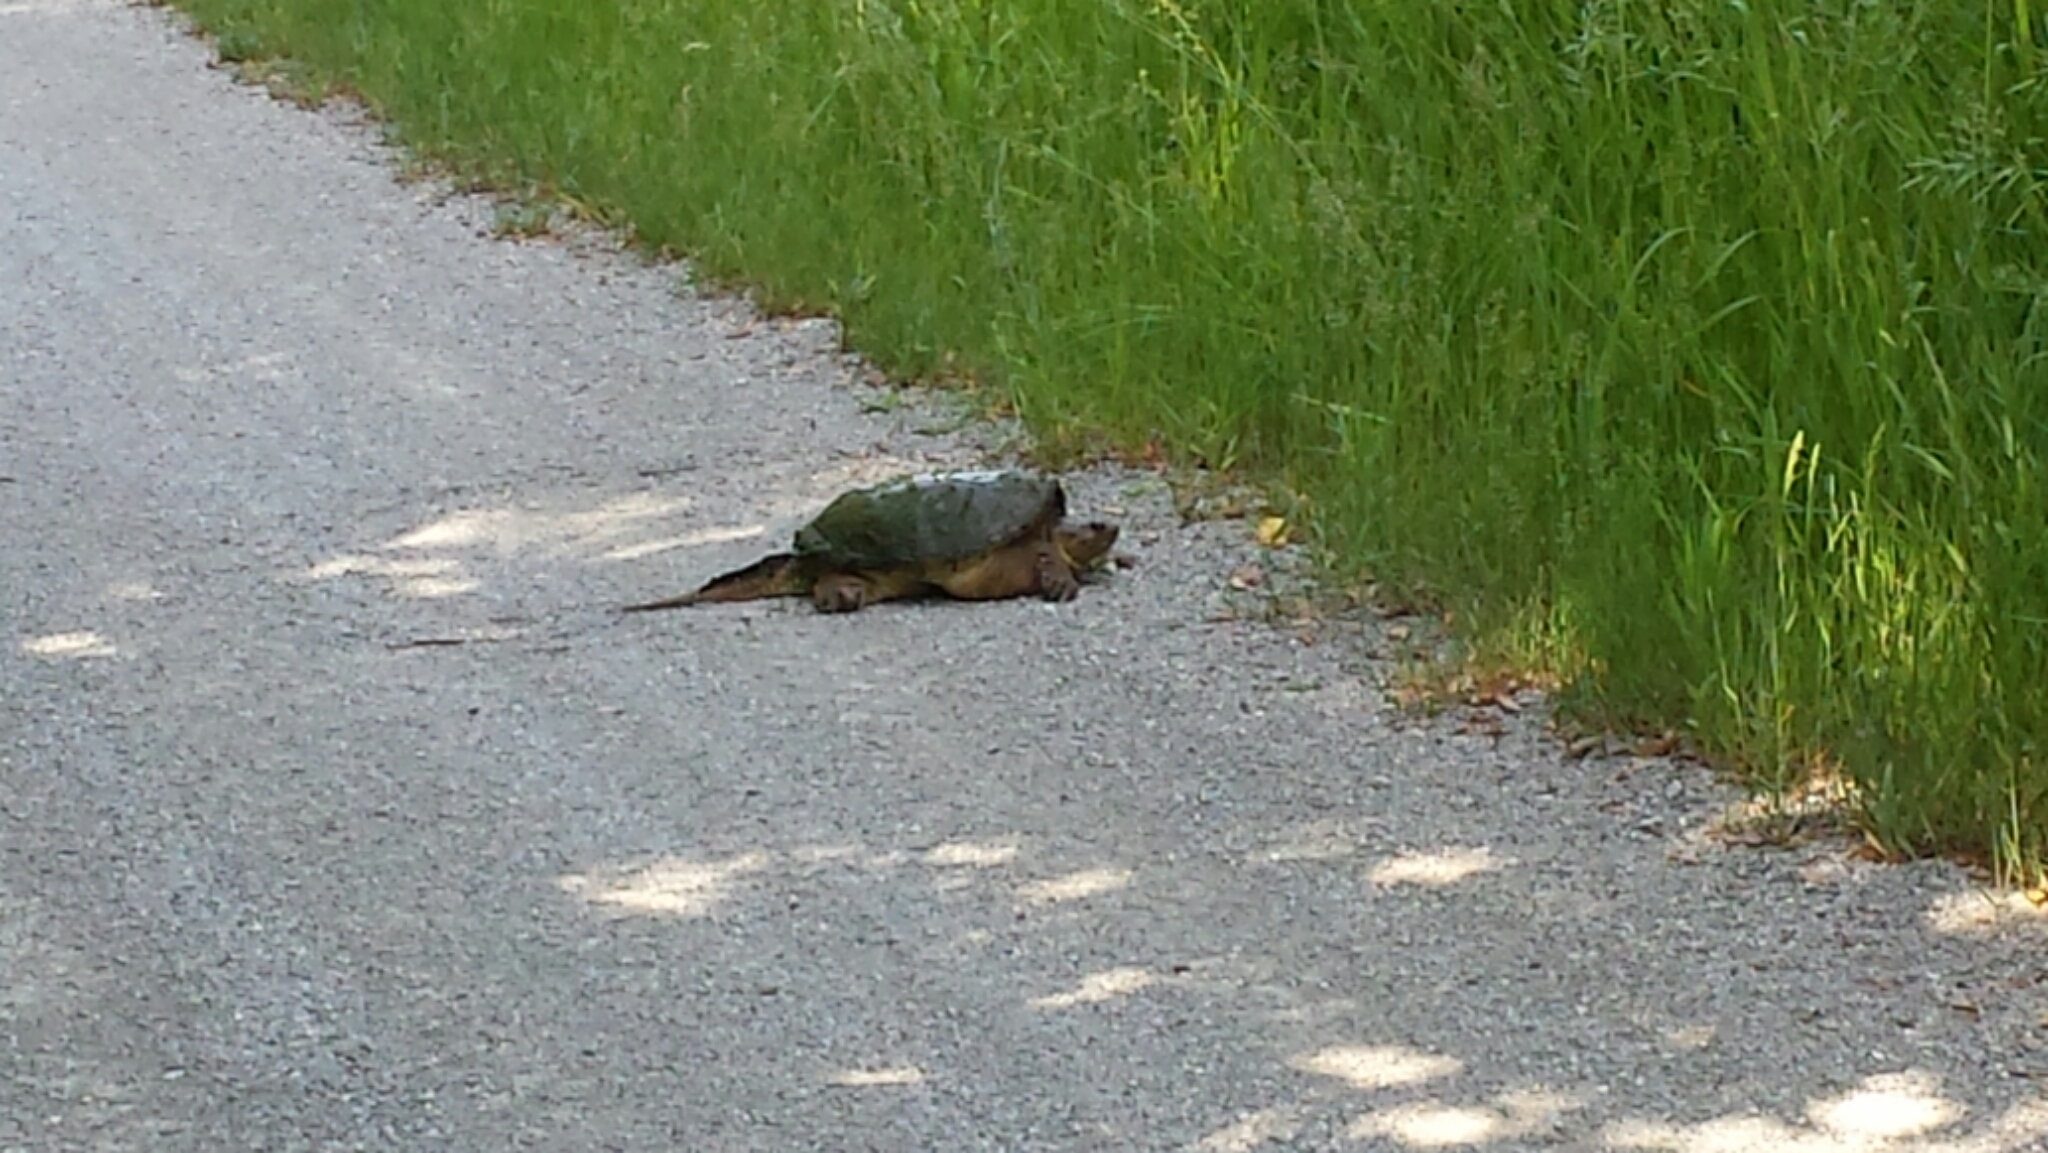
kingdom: Animalia
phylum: Chordata
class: Testudines
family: Chelydridae
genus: Chelydra
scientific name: Chelydra serpentina
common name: Common snapping turtle
